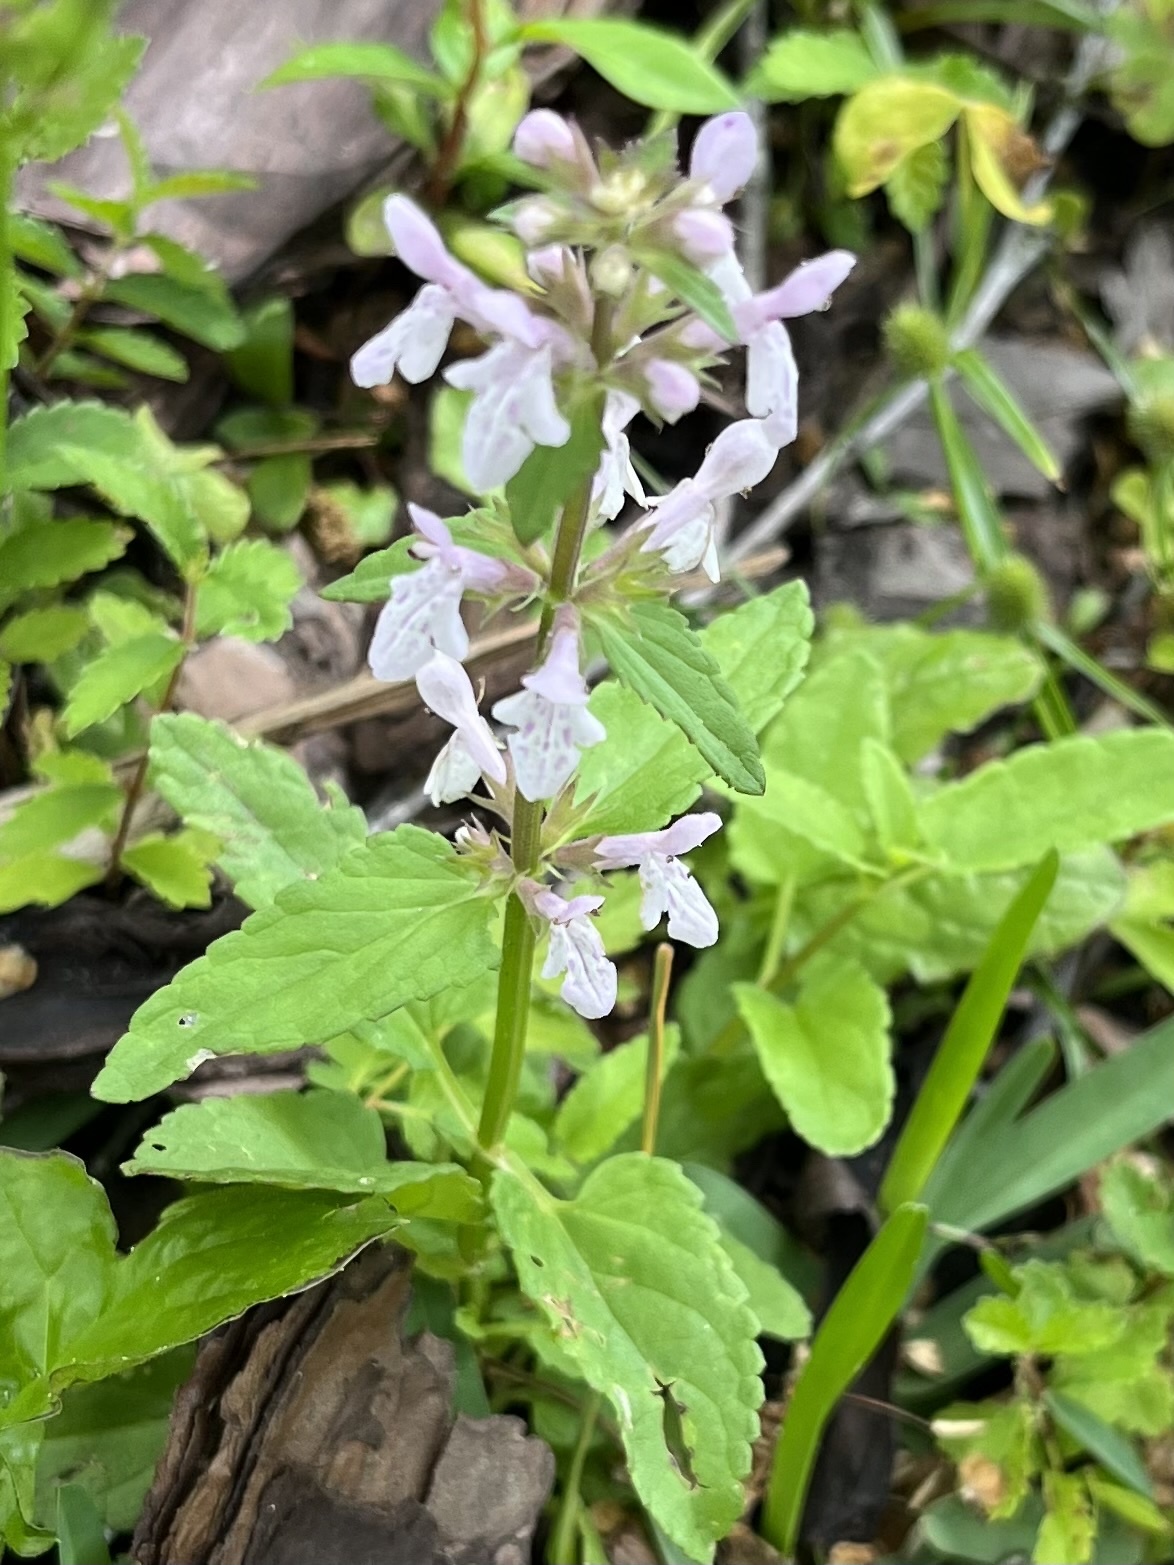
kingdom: Plantae
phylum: Tracheophyta
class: Magnoliopsida
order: Lamiales
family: Lamiaceae
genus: Stachys
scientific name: Stachys floridana
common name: Florida betony
